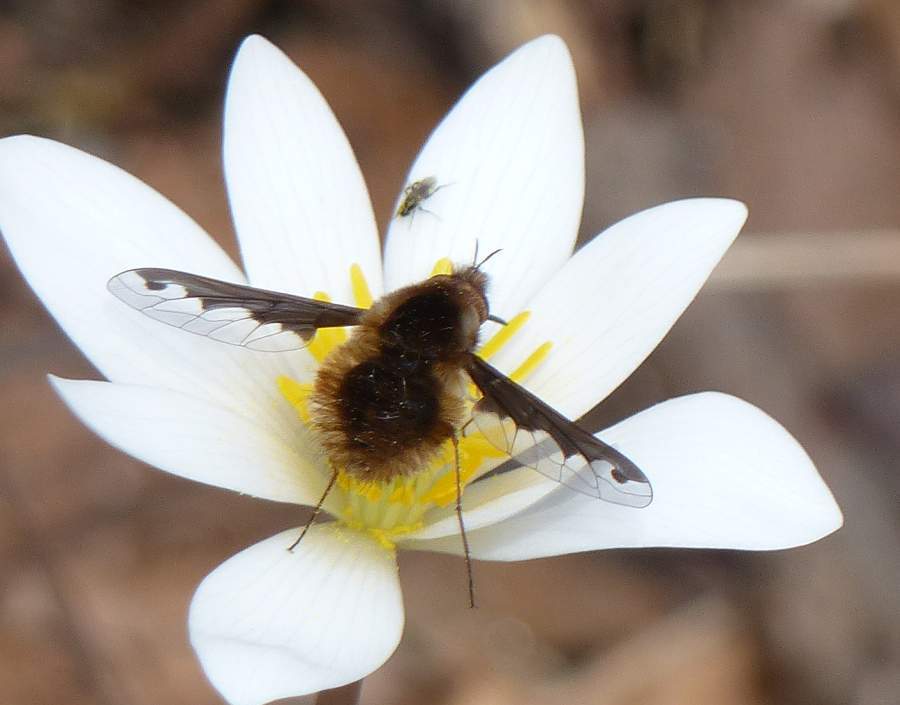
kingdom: Animalia
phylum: Arthropoda
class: Insecta
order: Diptera
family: Bombyliidae
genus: Bombylius
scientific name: Bombylius major
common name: Bee fly
